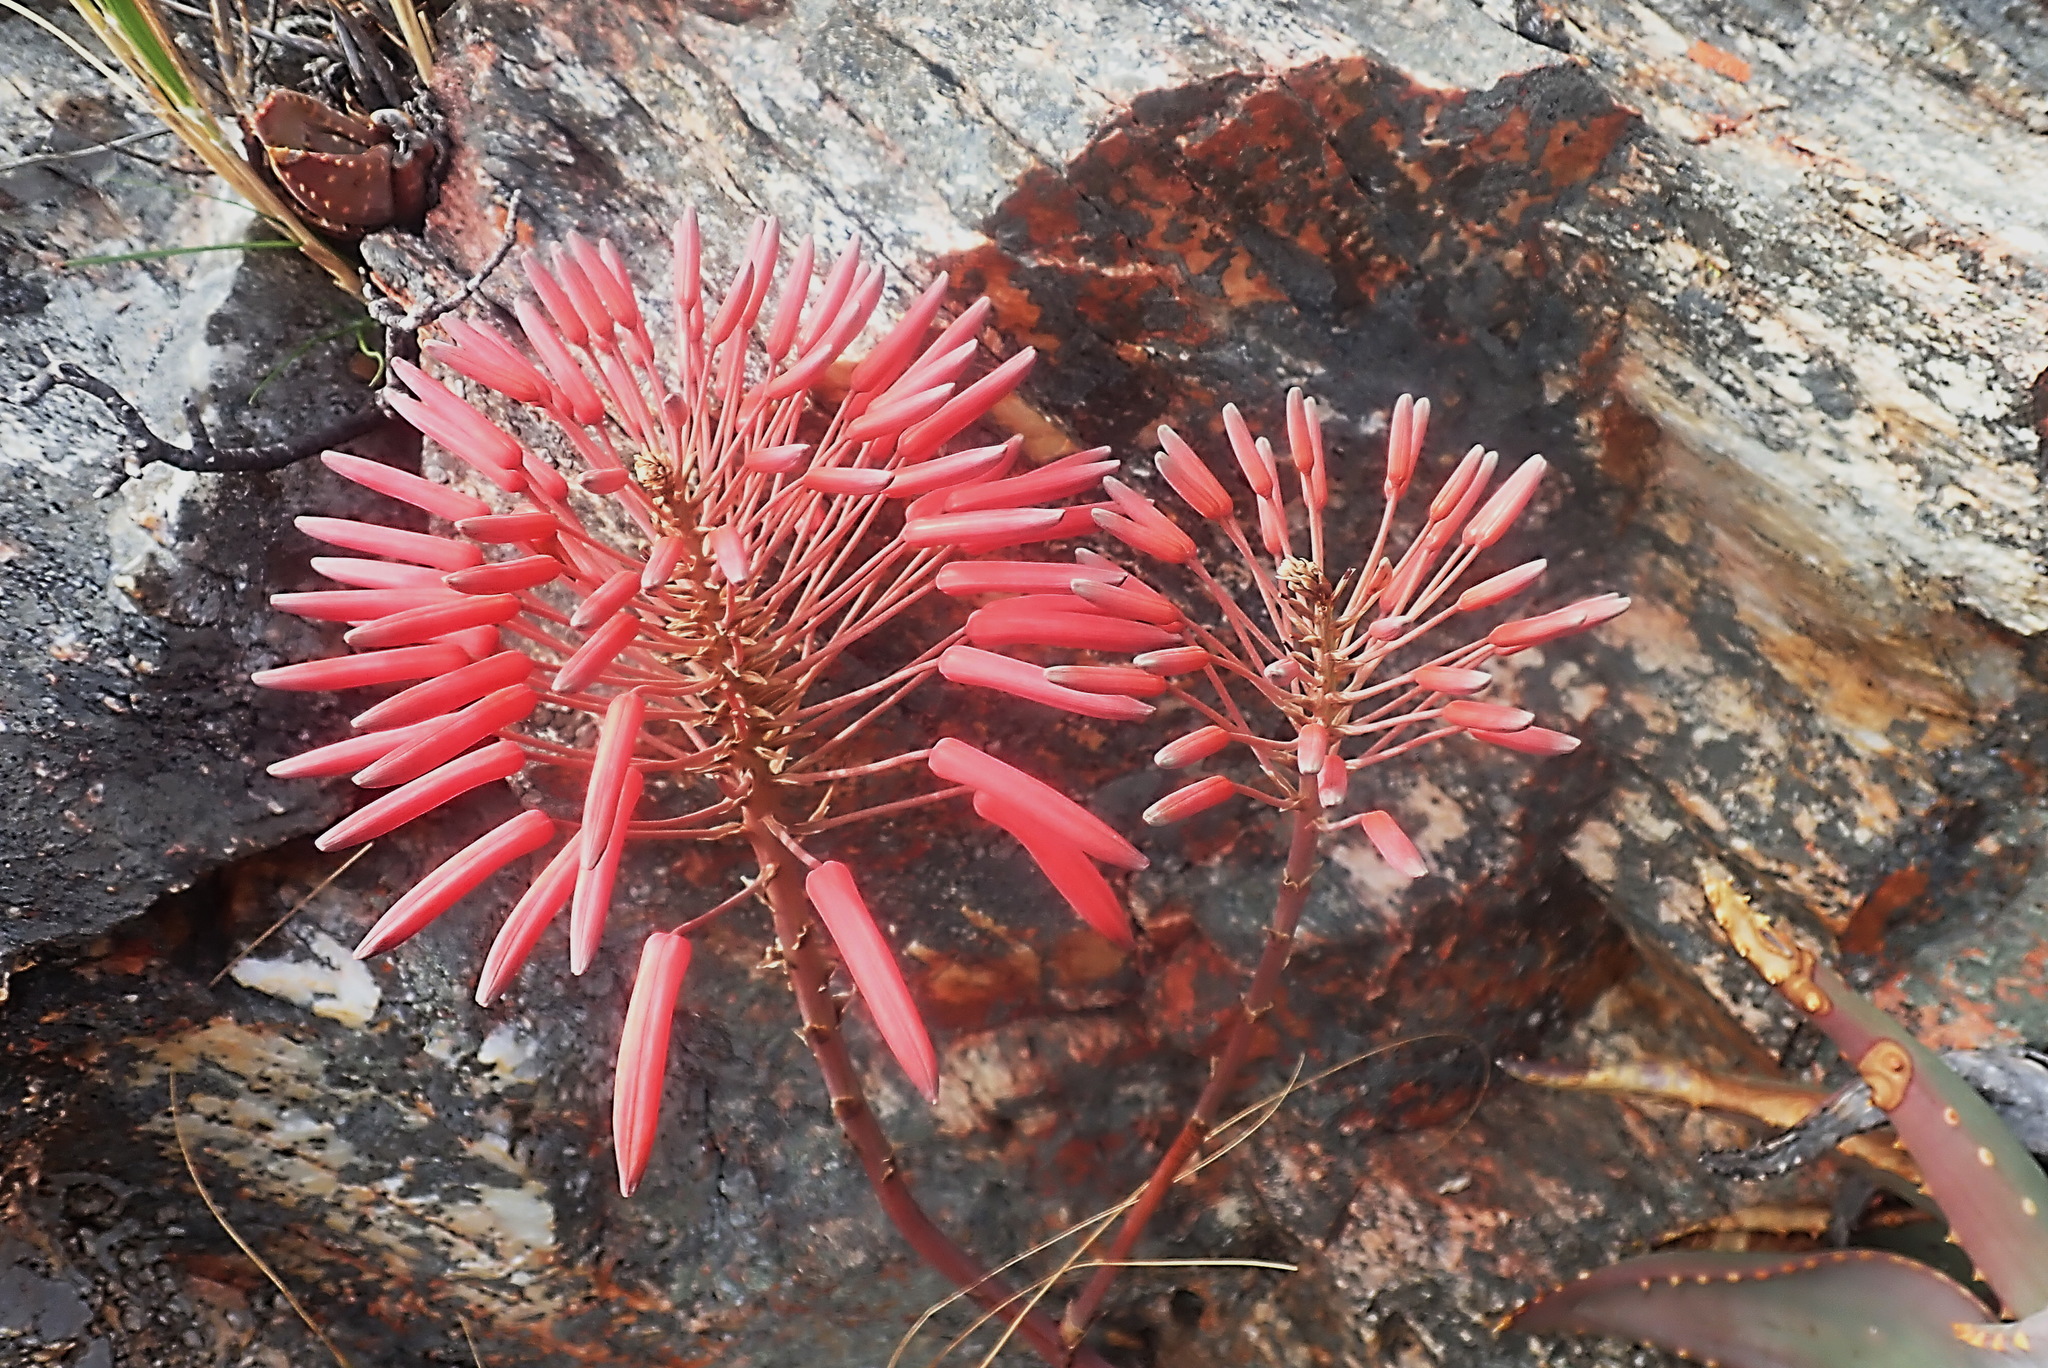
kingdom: Plantae
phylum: Tracheophyta
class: Liliopsida
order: Asparagales
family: Asphodelaceae
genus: Aloe
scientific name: Aloe comptonii
